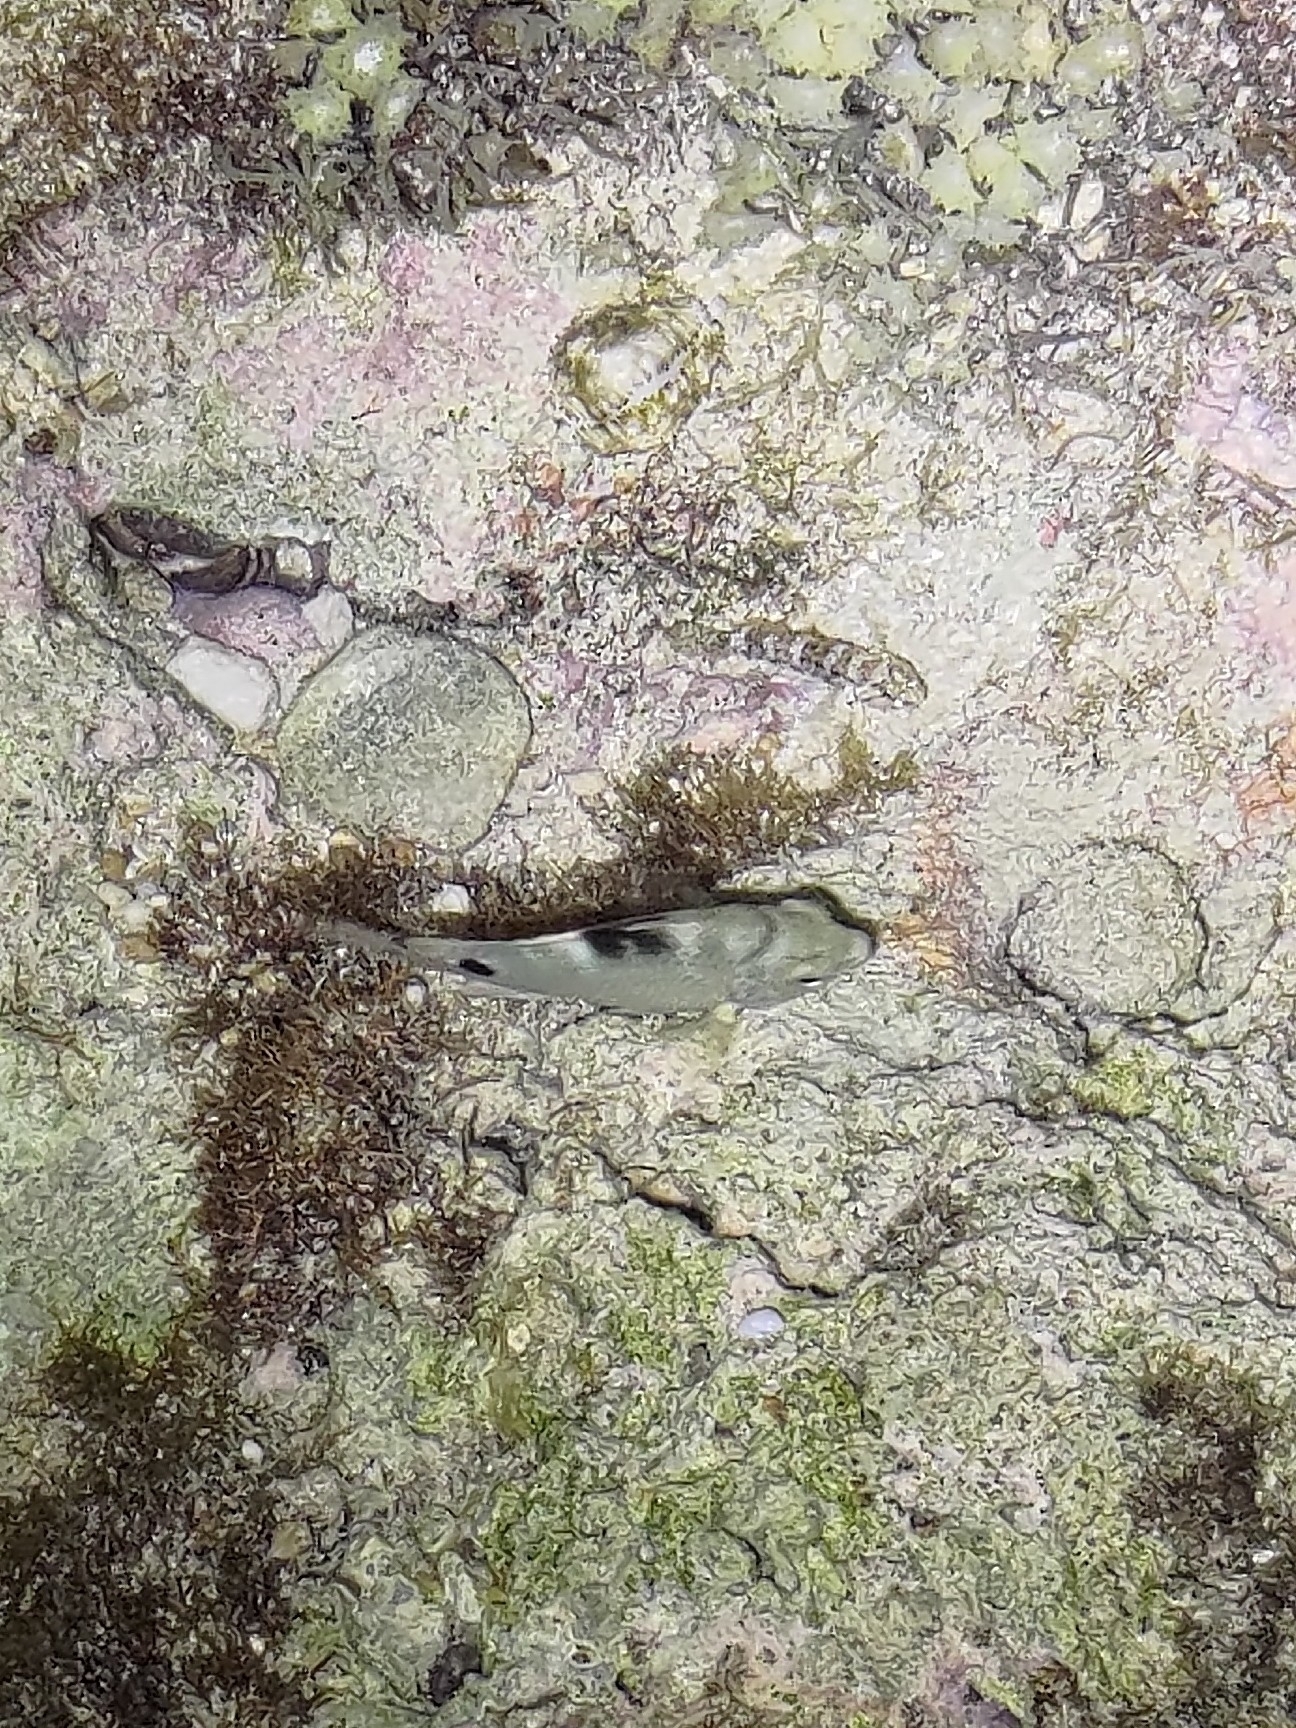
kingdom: Animalia
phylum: Chordata
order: Perciformes
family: Pomacentridae
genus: Abudefduf
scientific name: Abudefduf sordidus
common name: Blackspot sergeant
